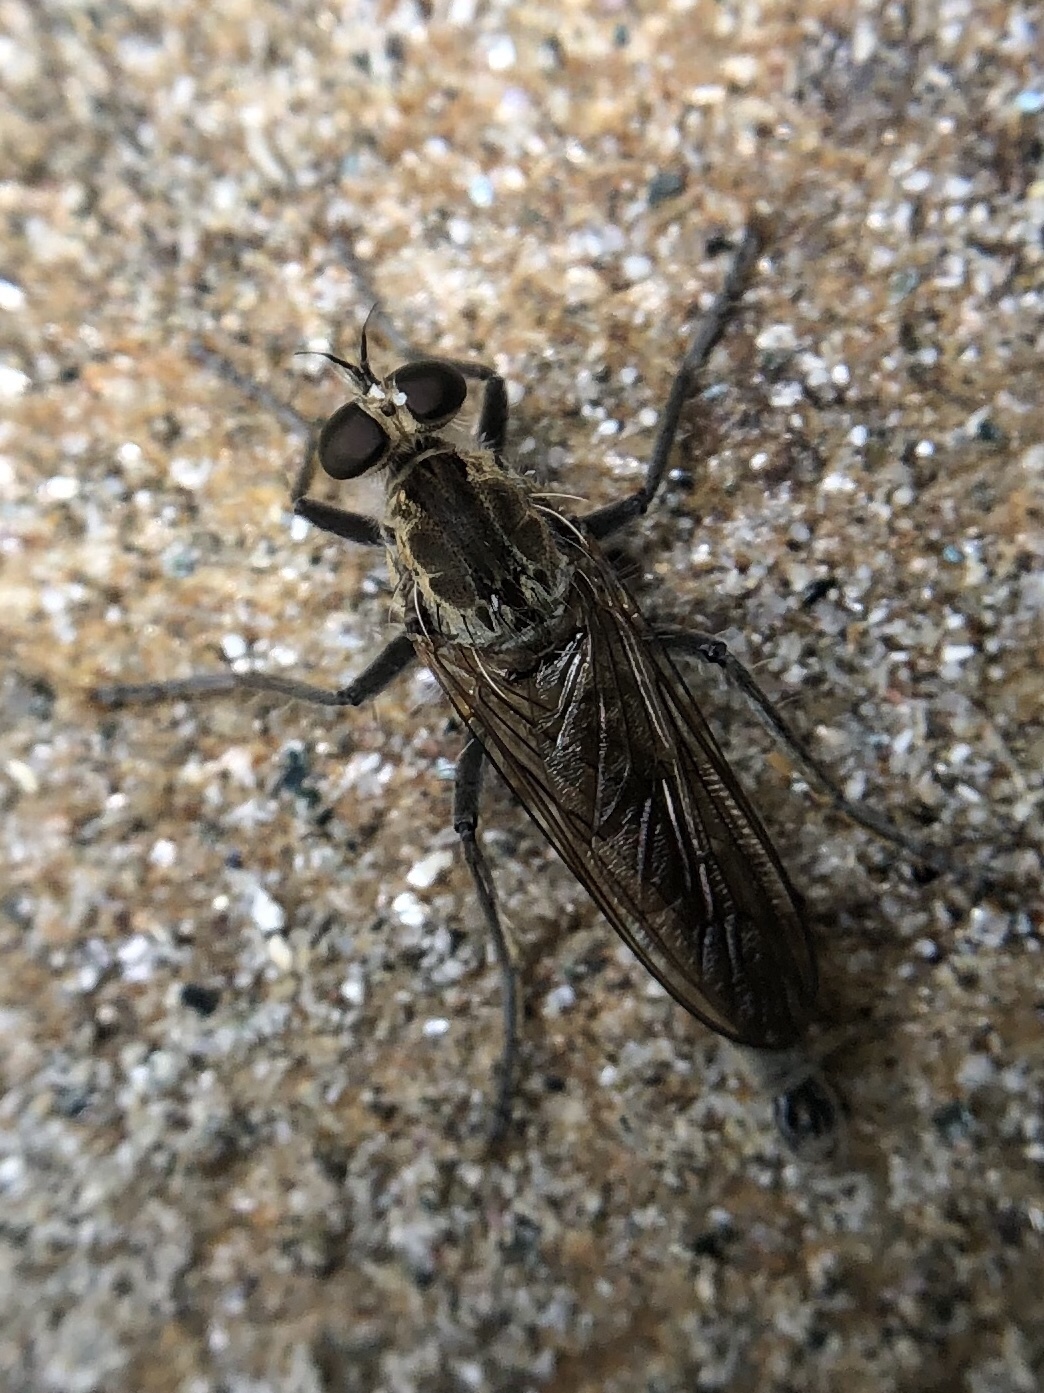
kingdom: Animalia
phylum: Arthropoda
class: Insecta
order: Diptera
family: Asilidae
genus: Philonicus
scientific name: Philonicus albiceps
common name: Dune robberfly
